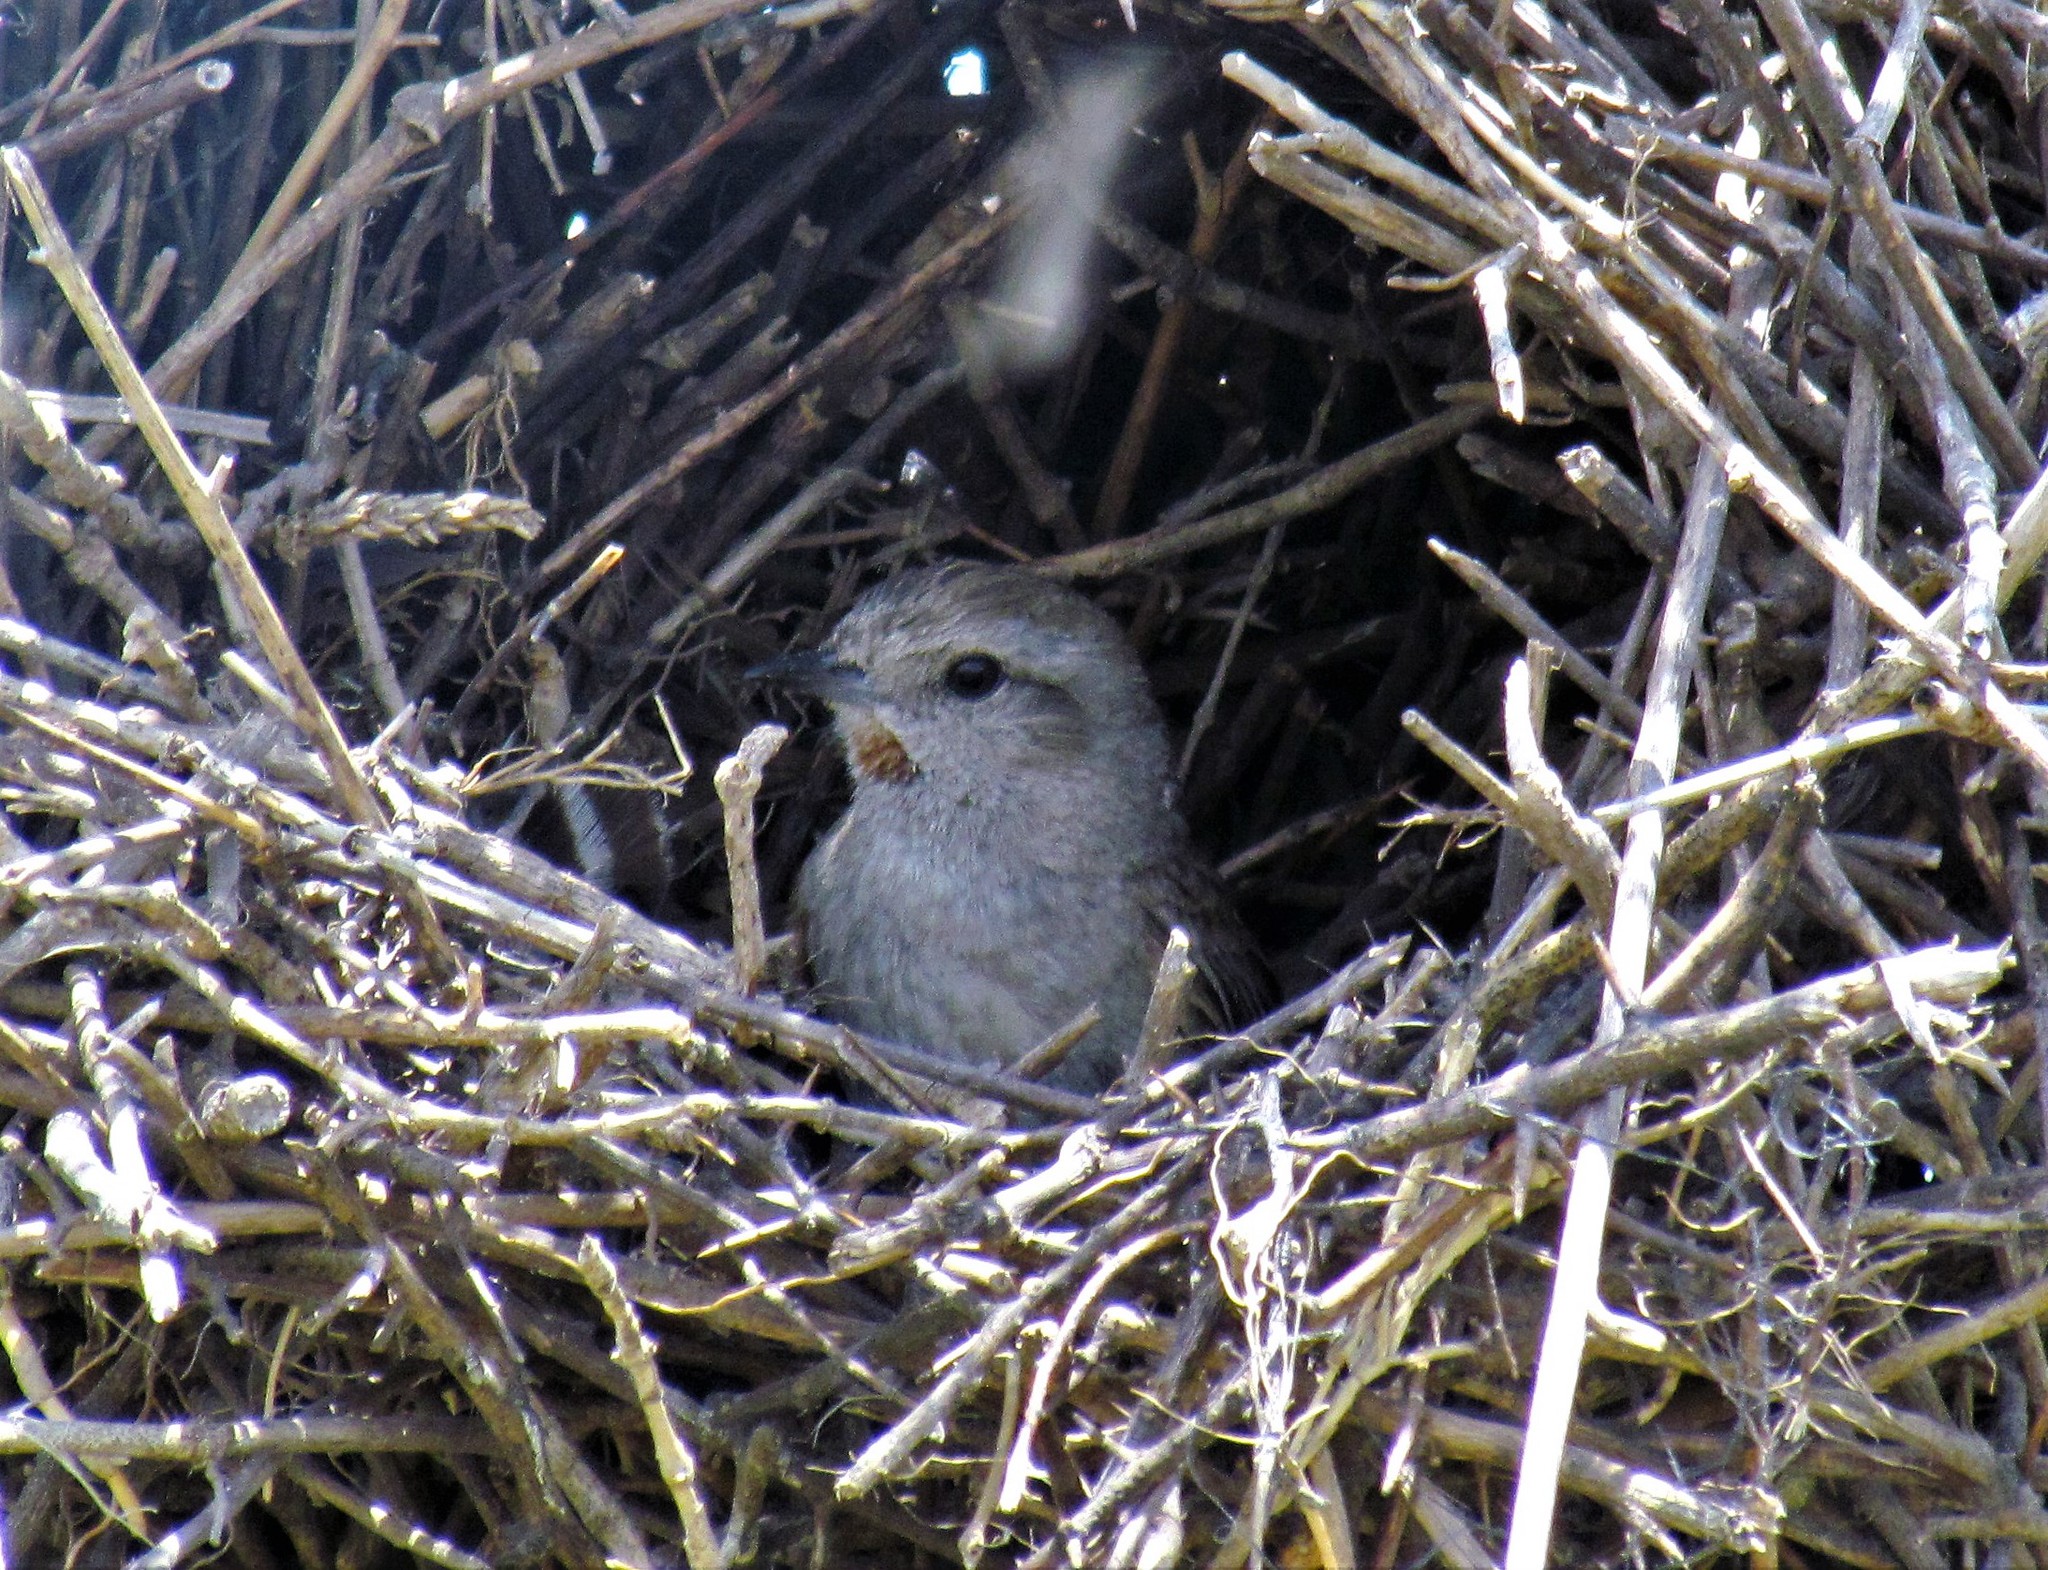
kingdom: Animalia
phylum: Chordata
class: Aves
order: Passeriformes
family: Furnariidae
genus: Asthenes
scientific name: Asthenes baeri
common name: Short-billed canastero
